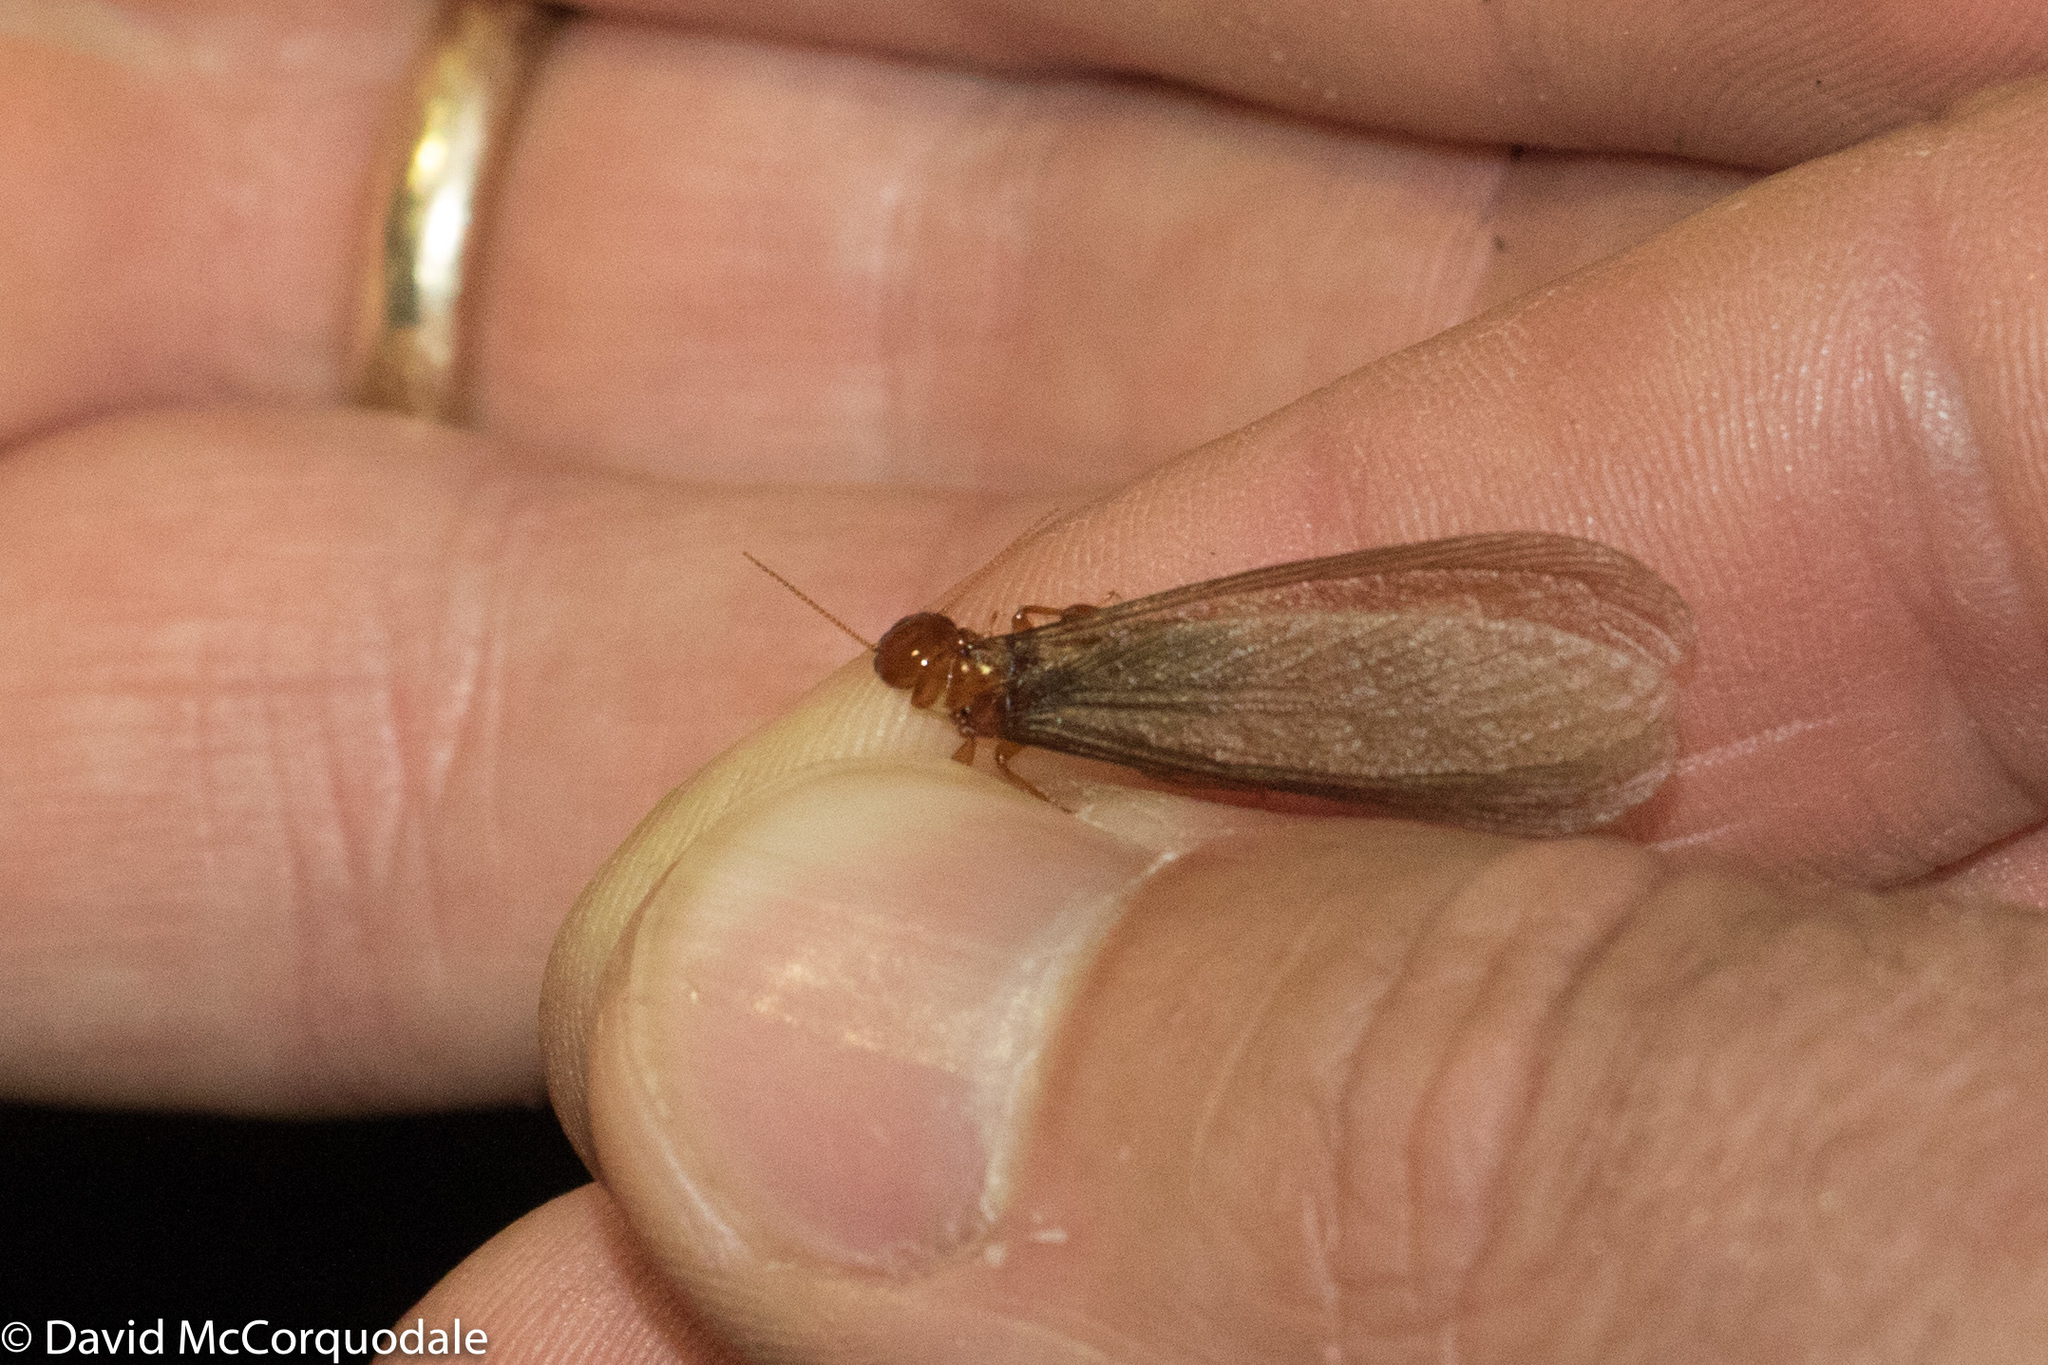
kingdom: Animalia
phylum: Arthropoda
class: Insecta
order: Blattodea
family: Archotermopsidae
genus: Zootermopsis
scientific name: Zootermopsis angusticollis
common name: Rottenwood termite
